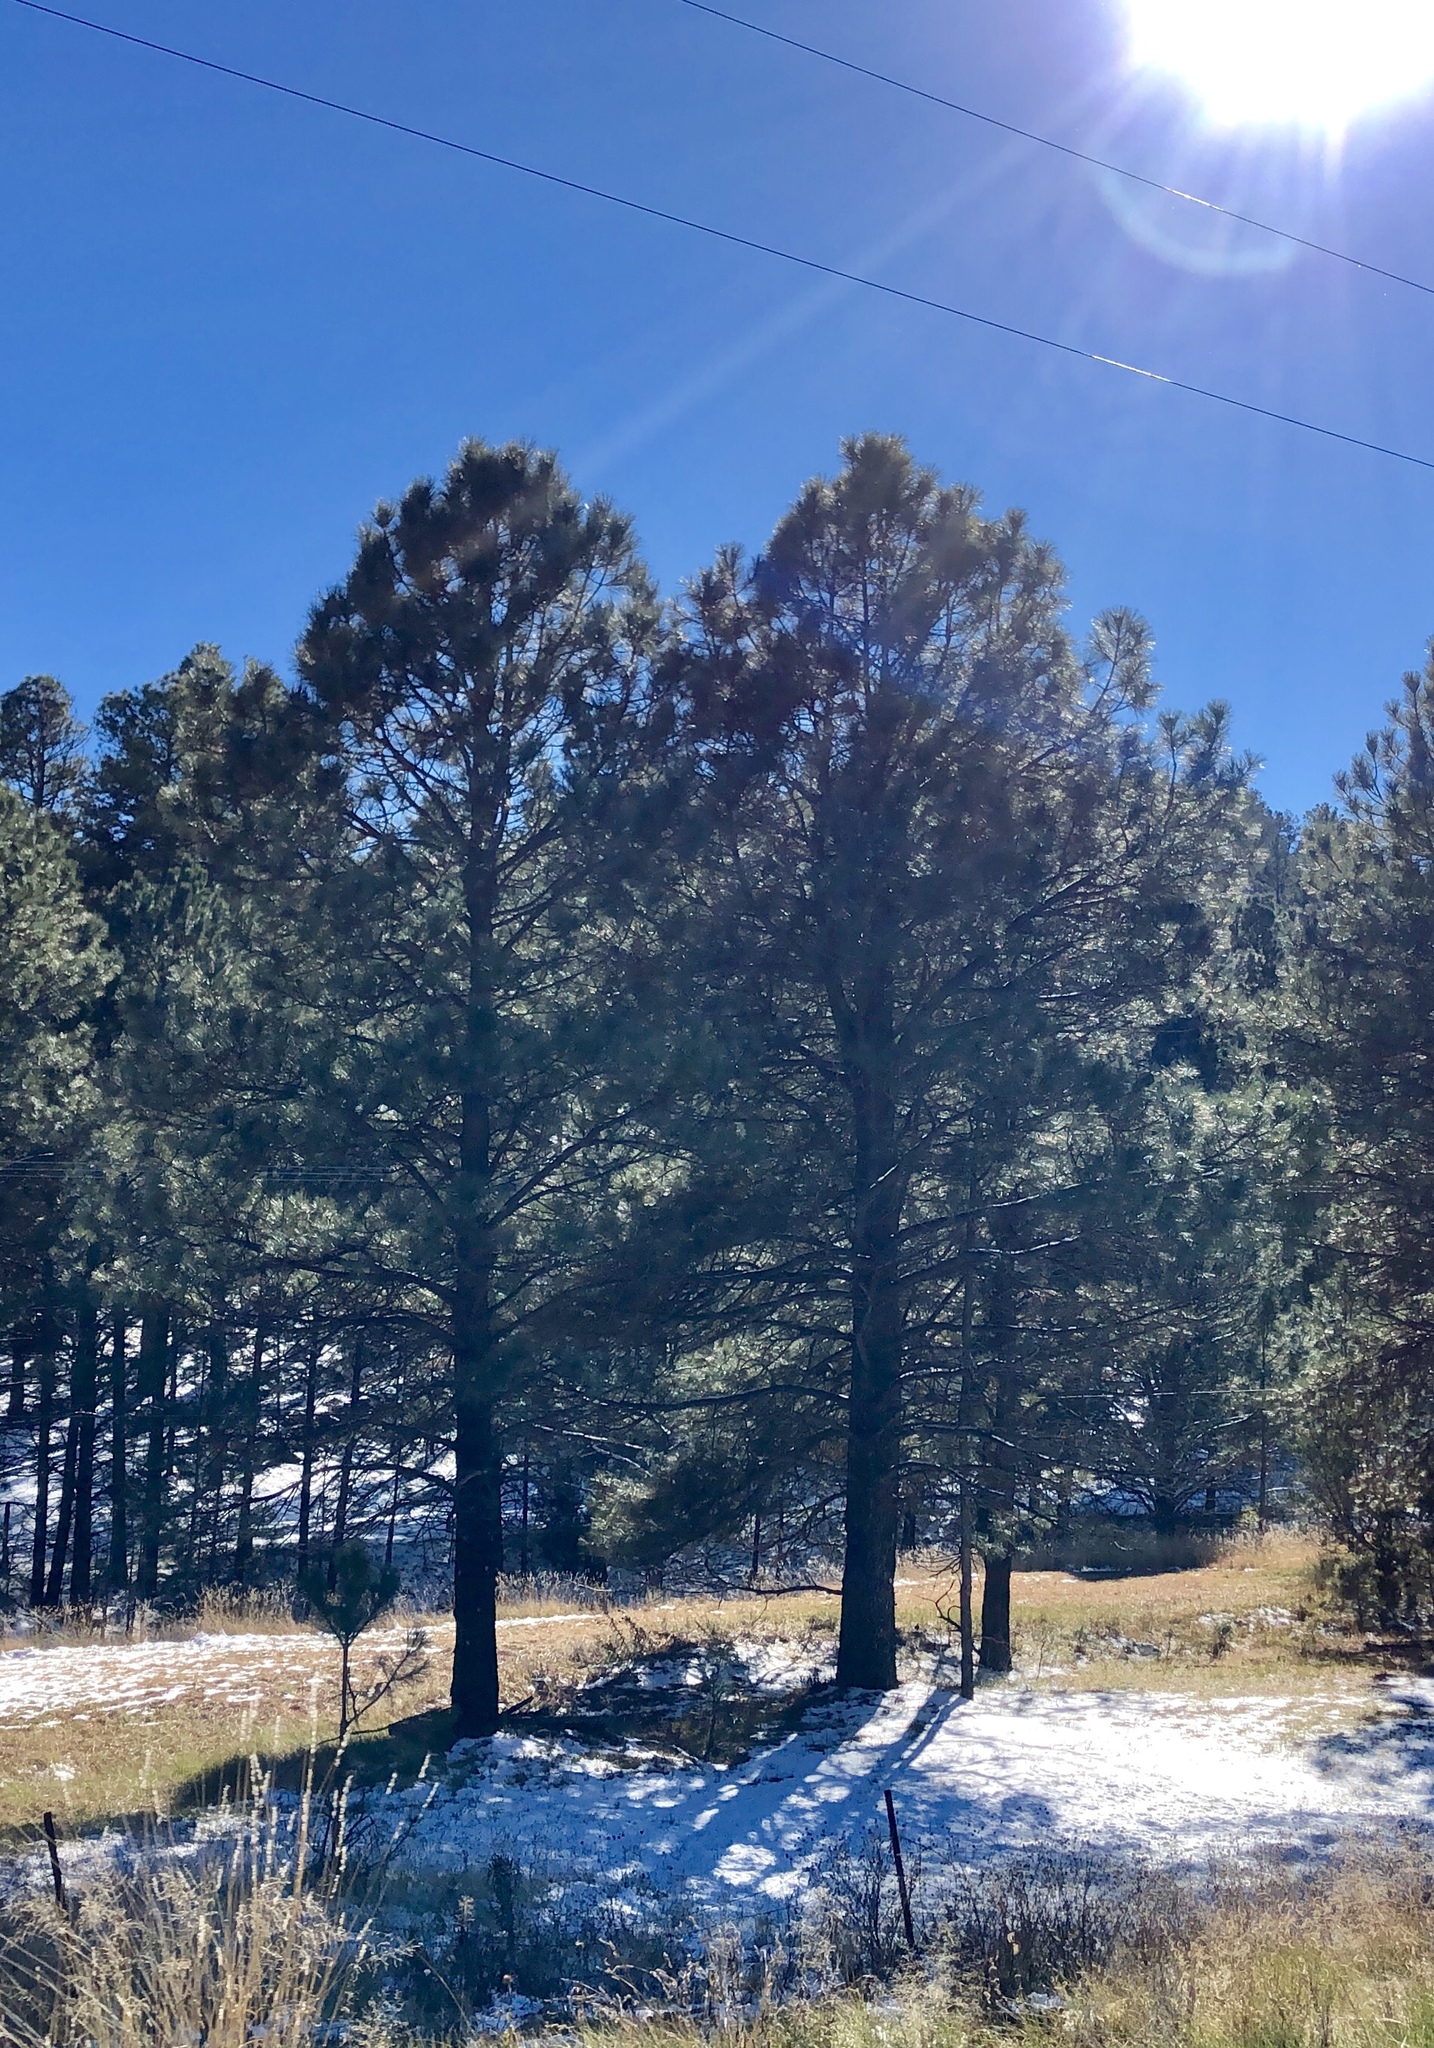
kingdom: Plantae
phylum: Tracheophyta
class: Pinopsida
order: Pinales
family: Pinaceae
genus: Pinus
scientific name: Pinus ponderosa
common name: Western yellow-pine
